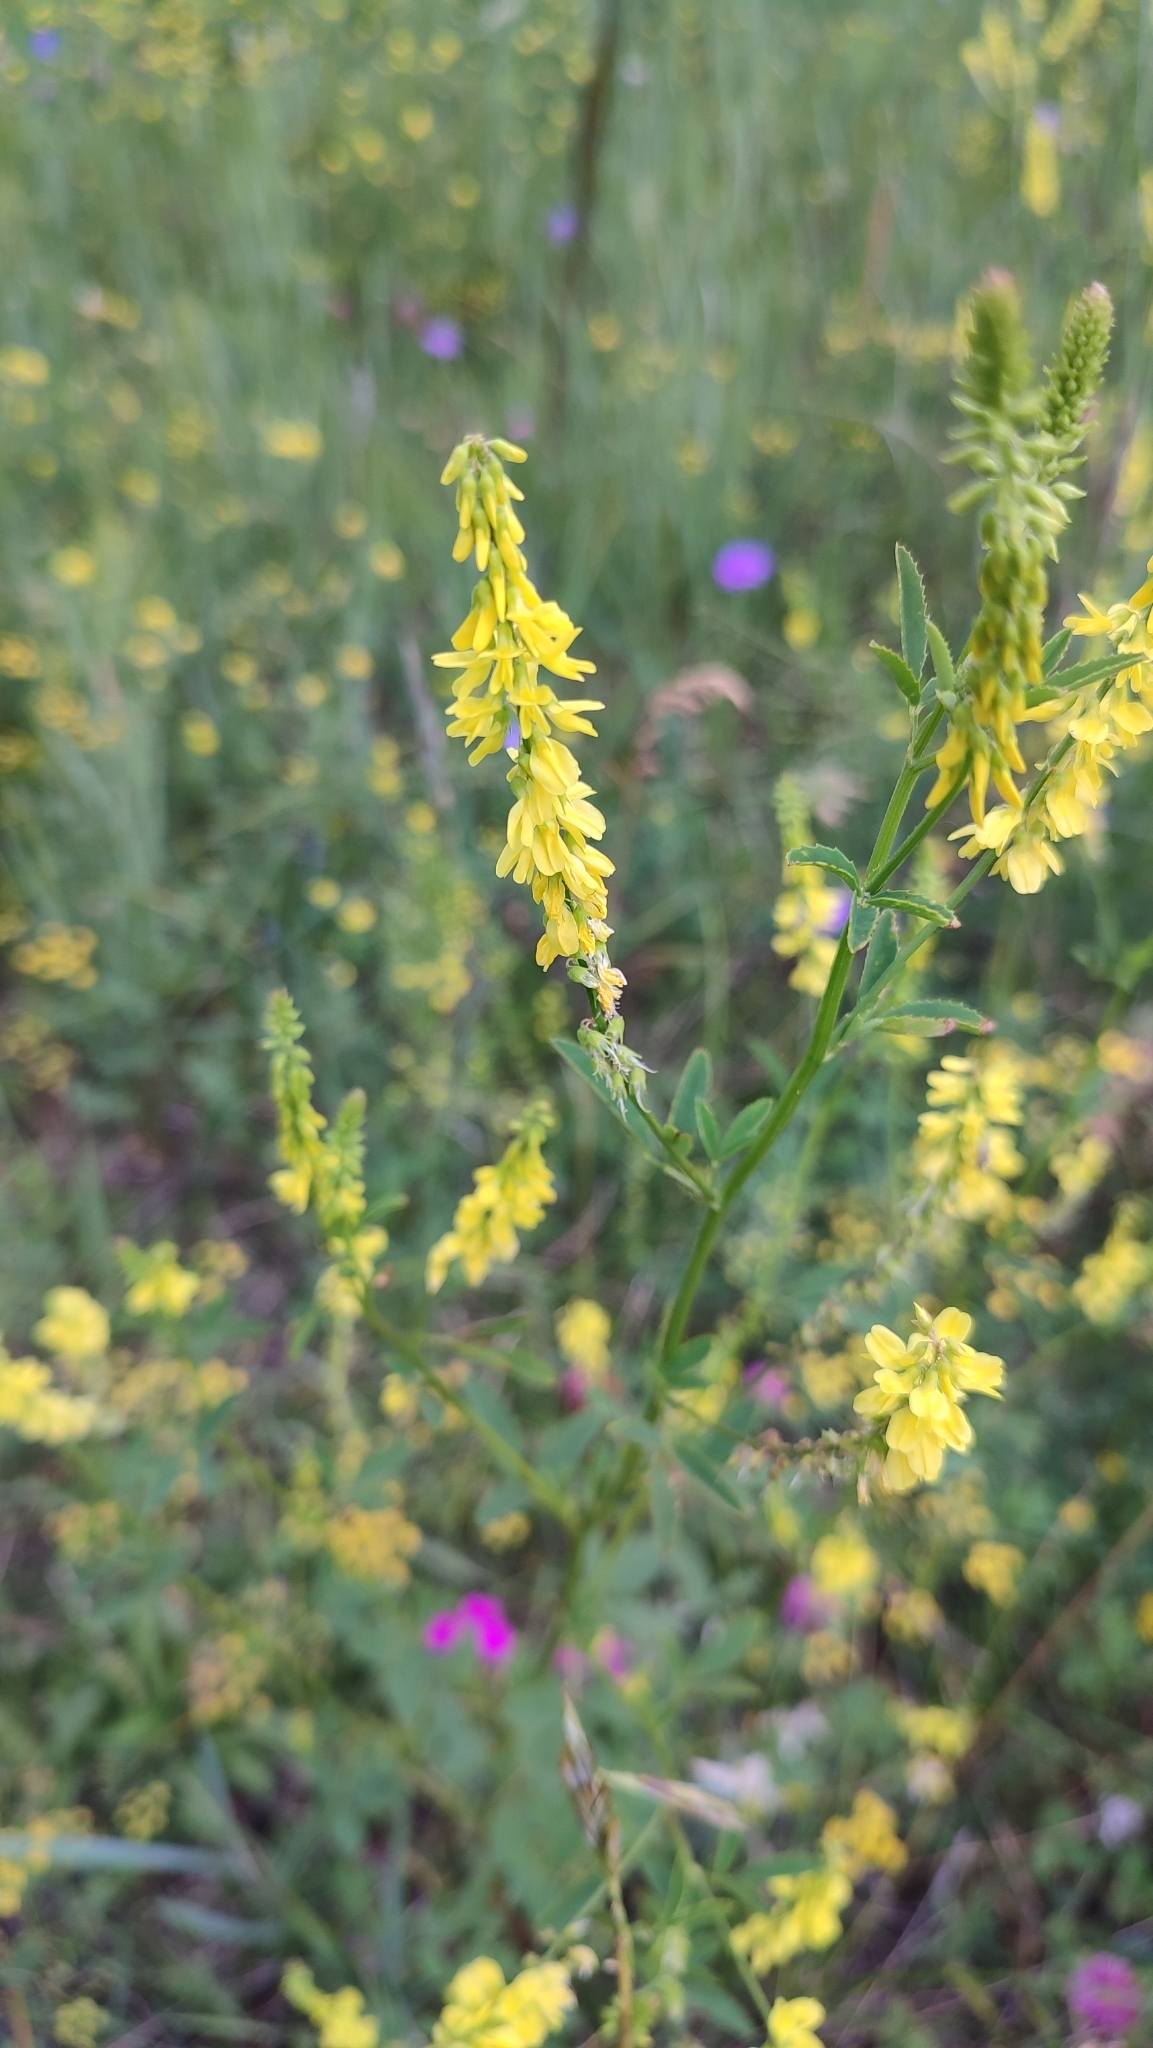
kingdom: Plantae
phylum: Tracheophyta
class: Magnoliopsida
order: Fabales
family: Fabaceae
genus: Melilotus
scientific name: Melilotus officinalis
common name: Sweetclover
